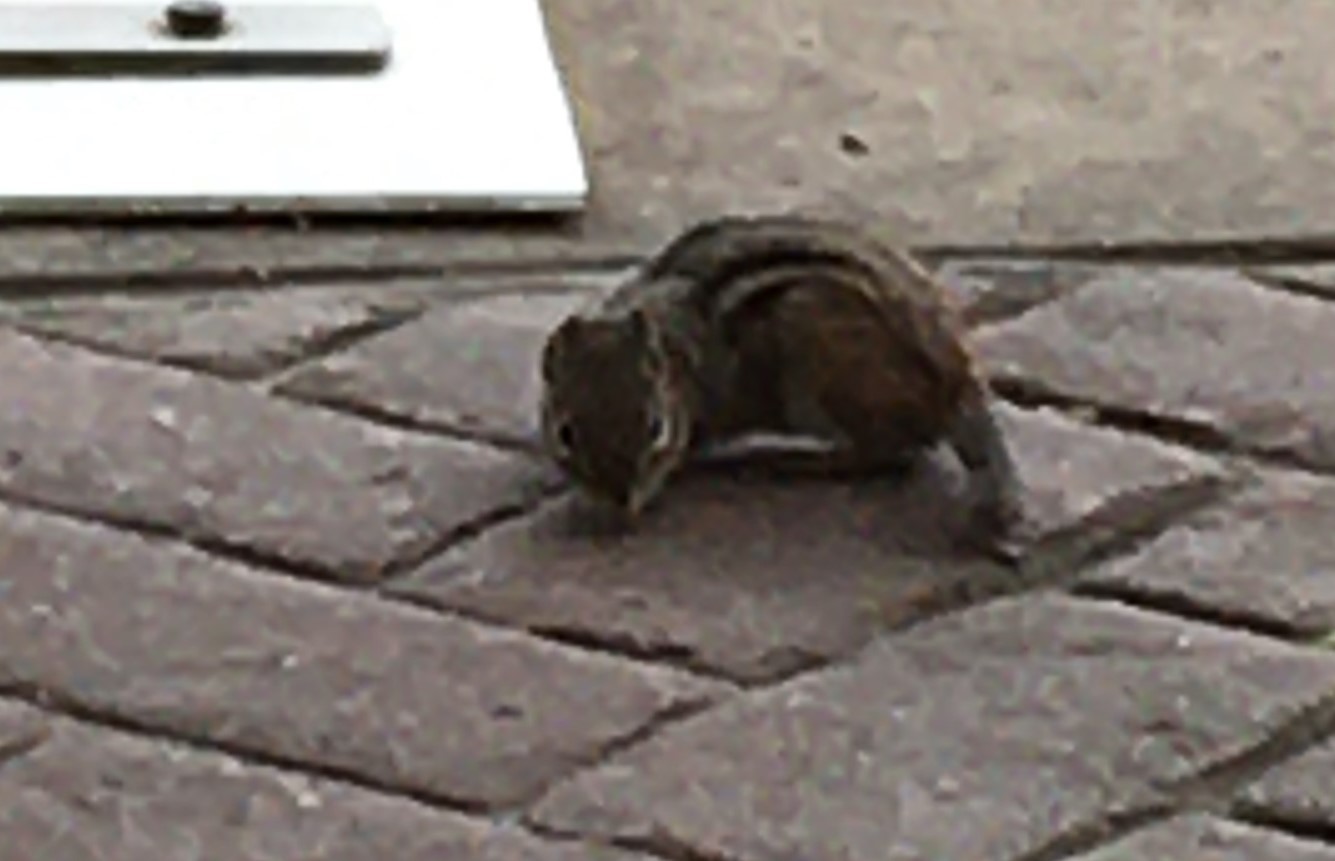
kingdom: Animalia
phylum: Chordata
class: Mammalia
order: Rodentia
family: Sciuridae
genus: Tamias
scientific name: Tamias striatus
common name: Eastern chipmunk
